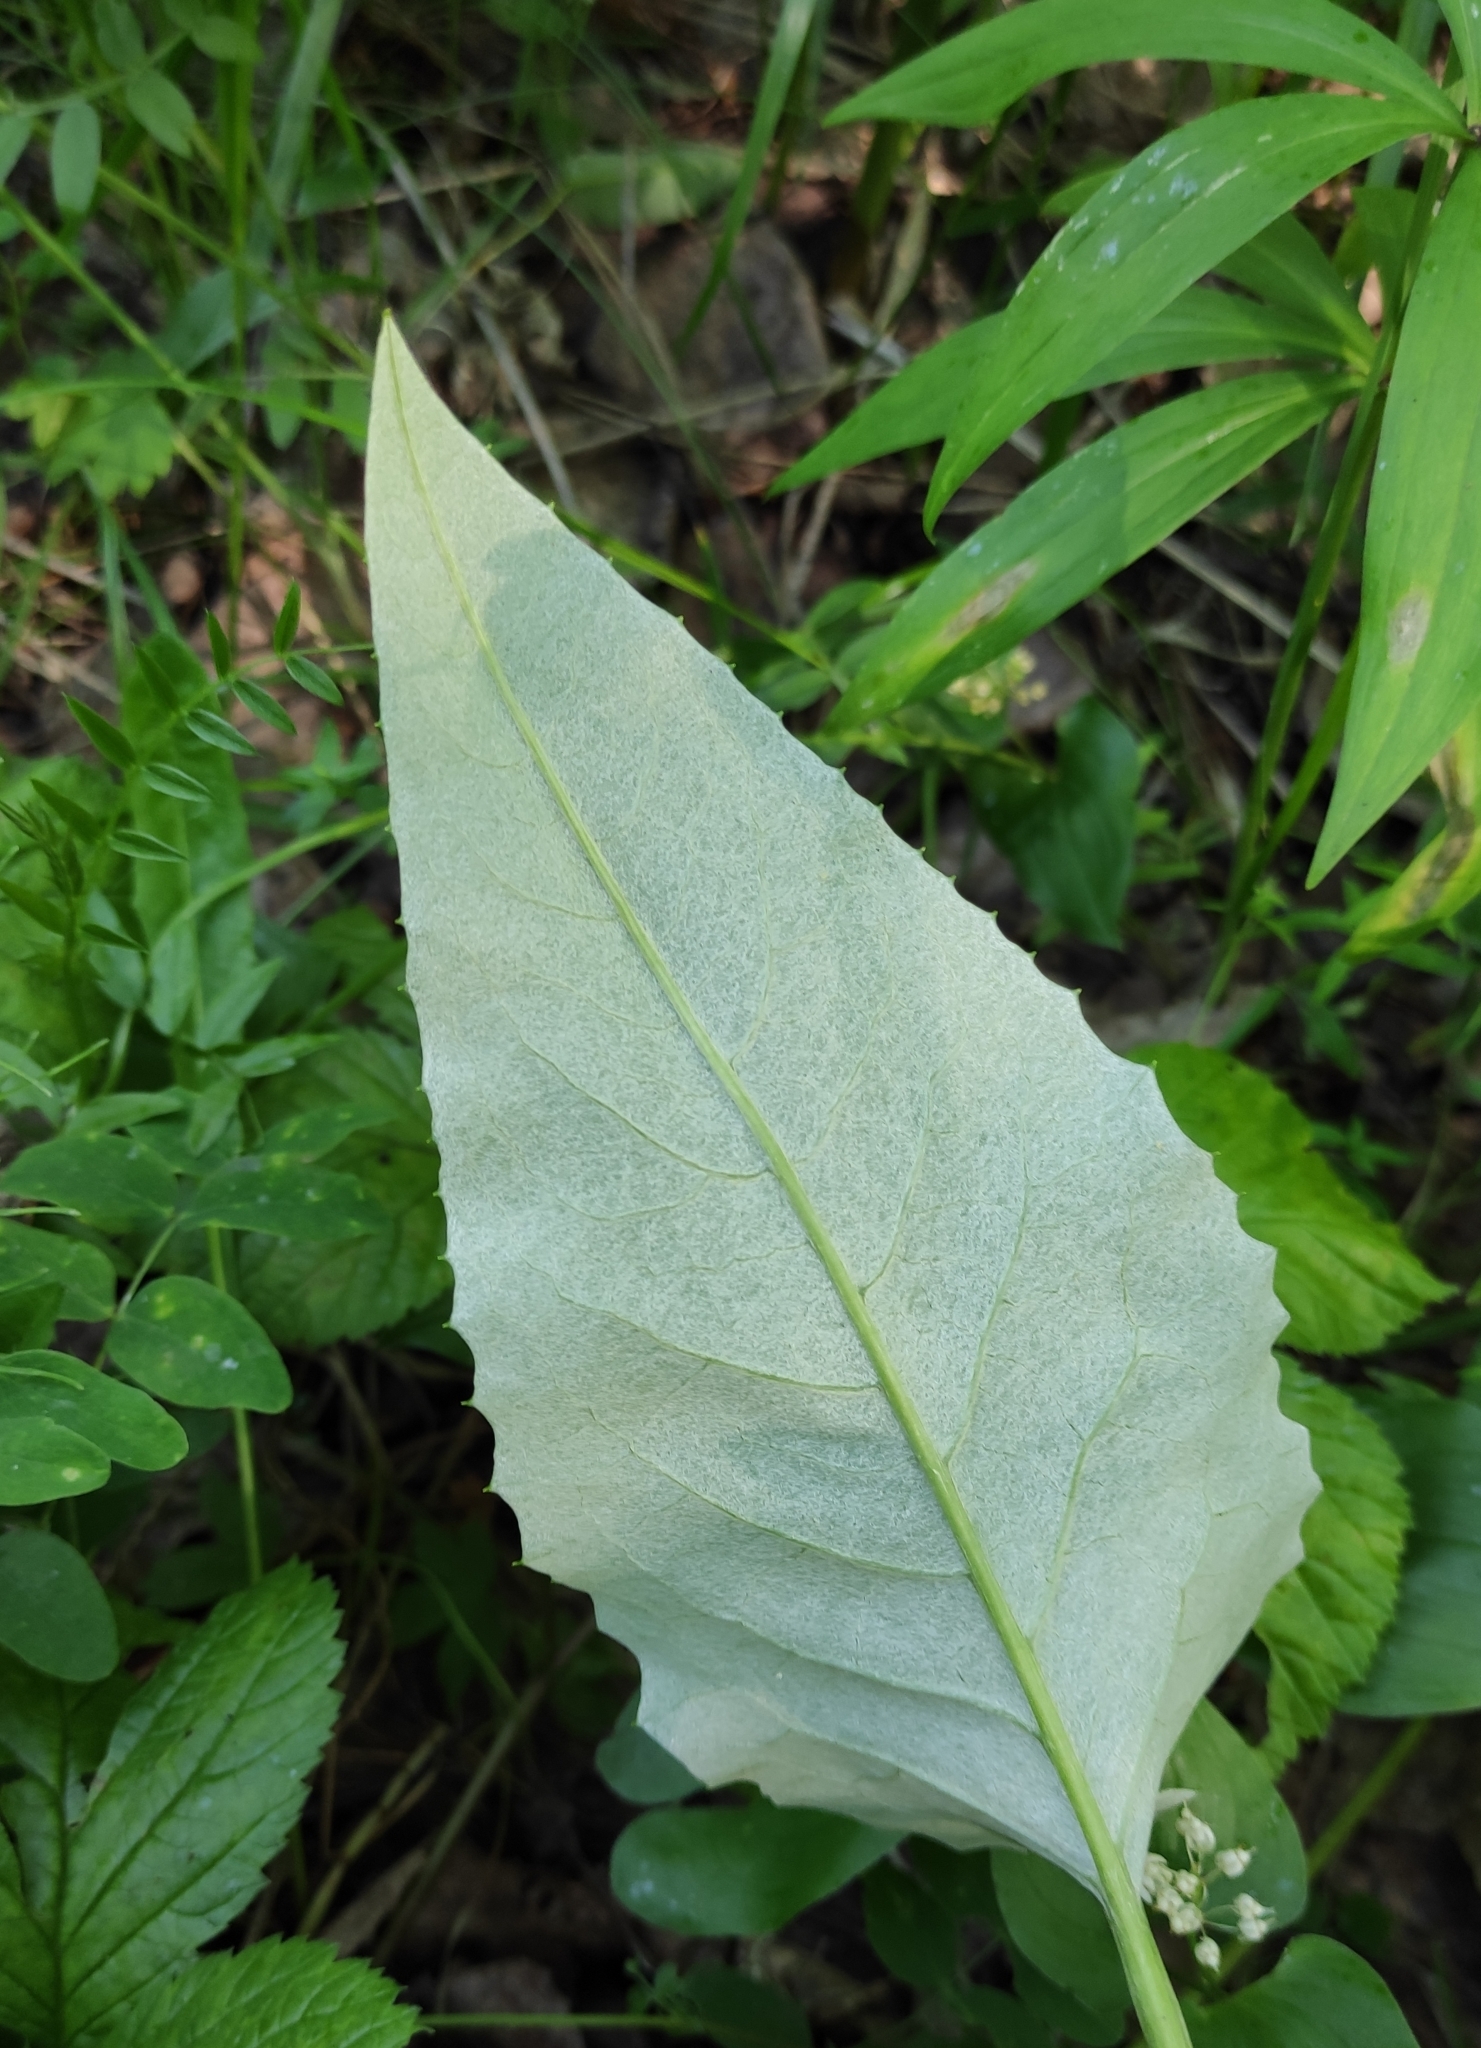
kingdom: Plantae
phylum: Tracheophyta
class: Magnoliopsida
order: Asterales
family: Asteraceae
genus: Saussurea
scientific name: Saussurea controversa
